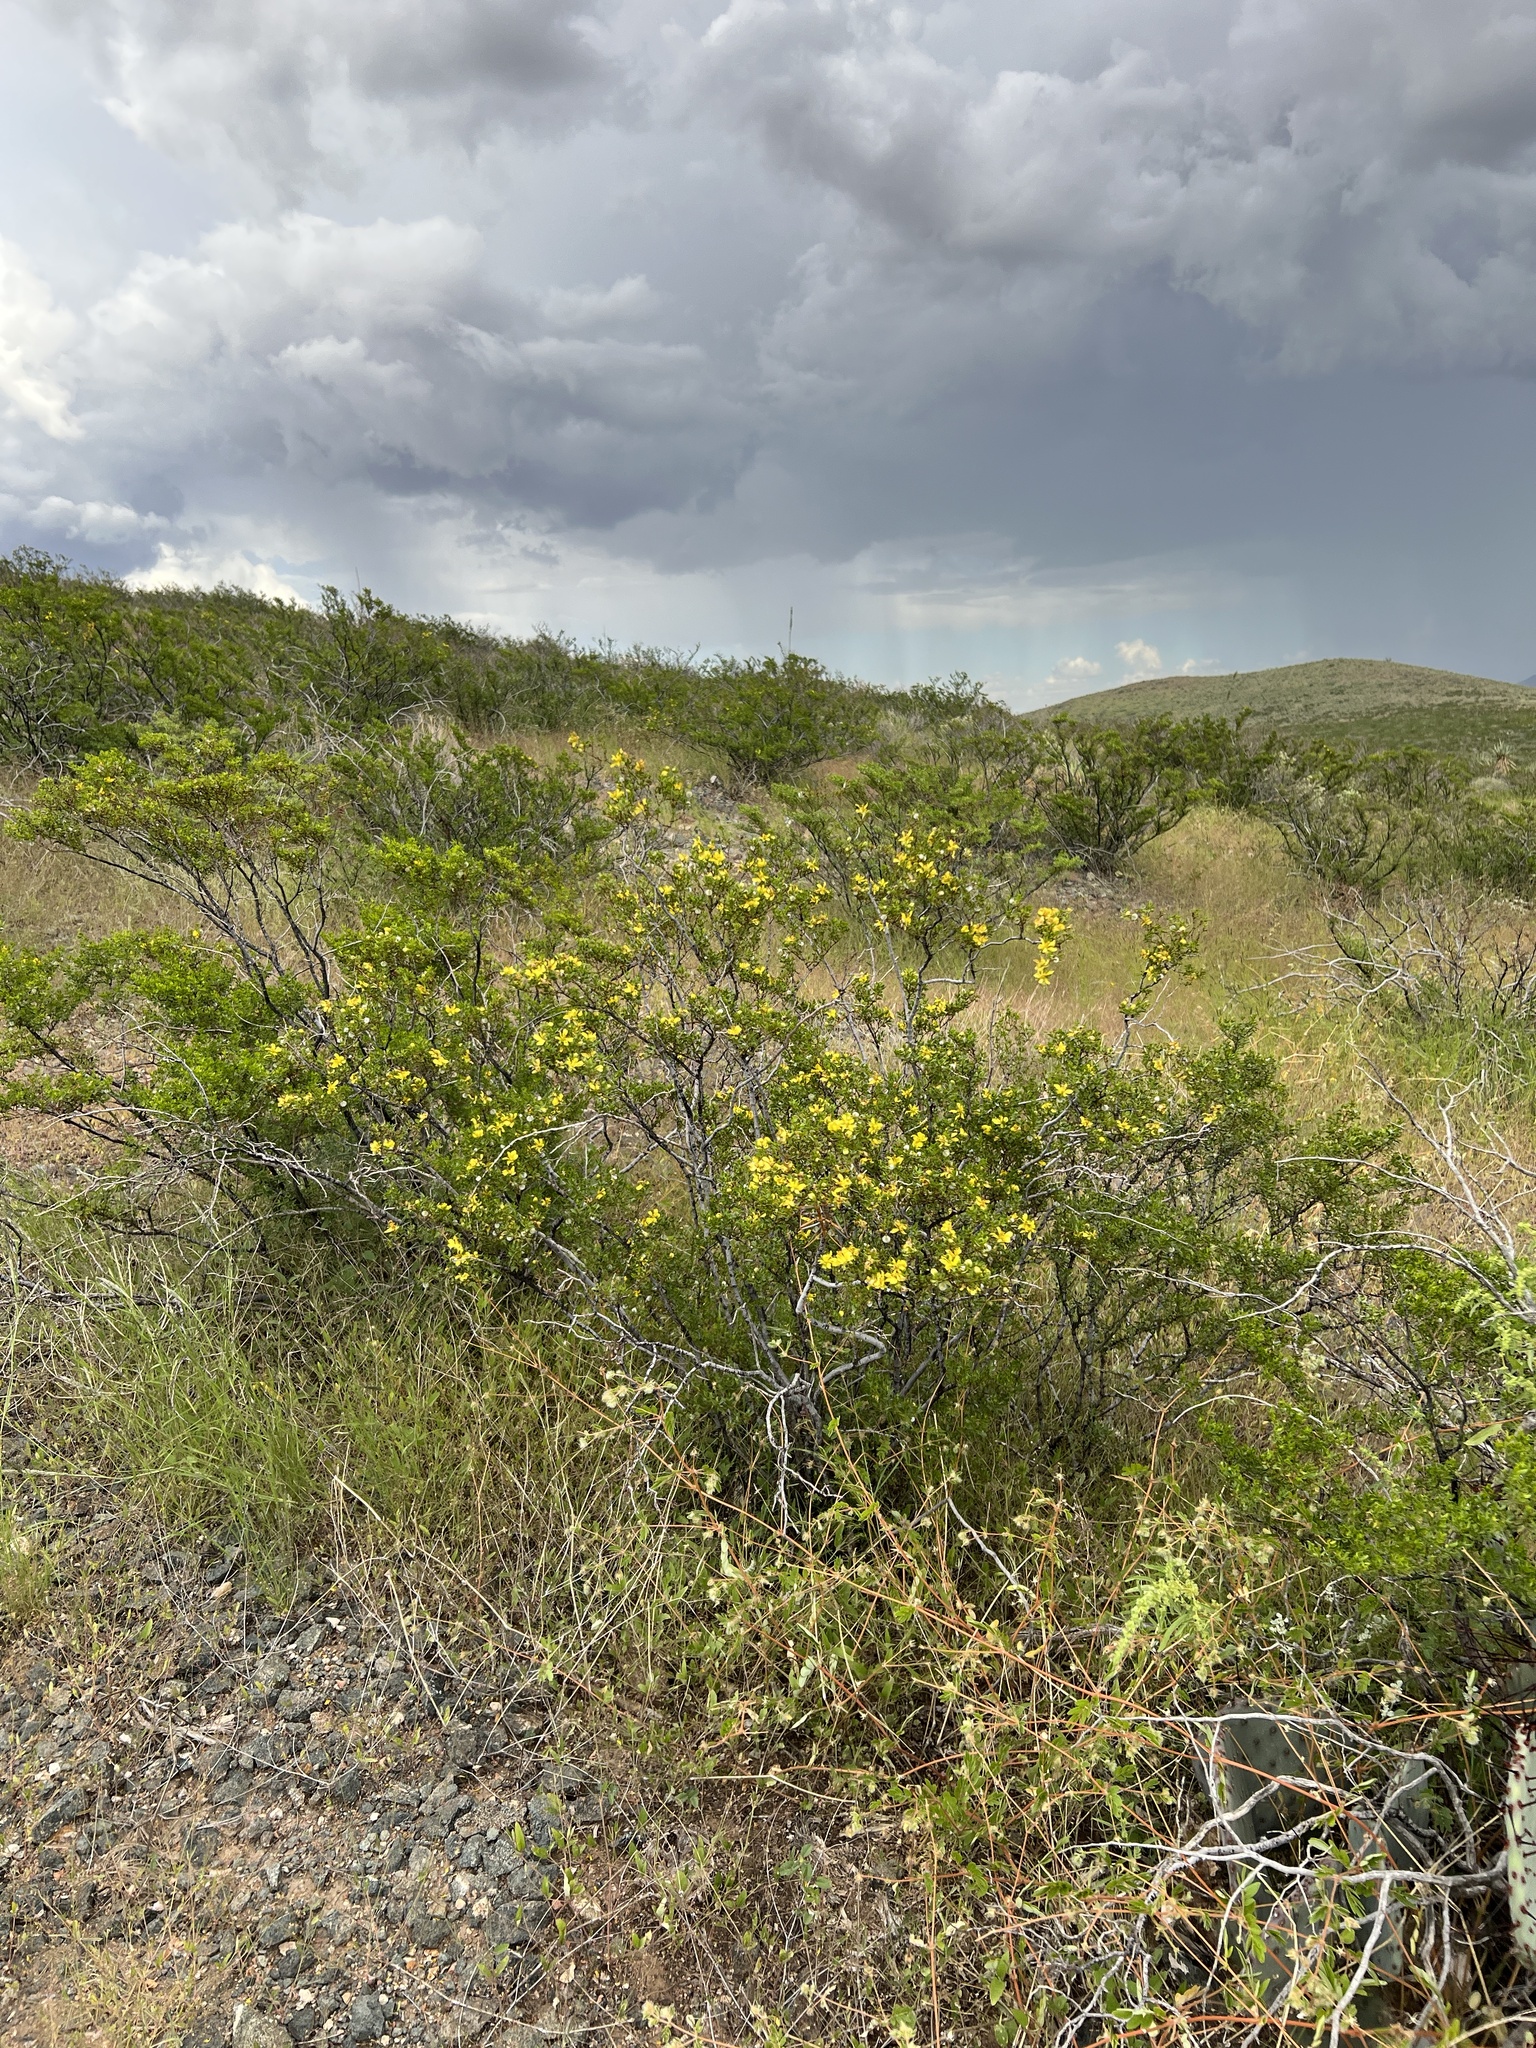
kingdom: Plantae
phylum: Tracheophyta
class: Magnoliopsida
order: Zygophyllales
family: Zygophyllaceae
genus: Larrea
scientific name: Larrea tridentata
